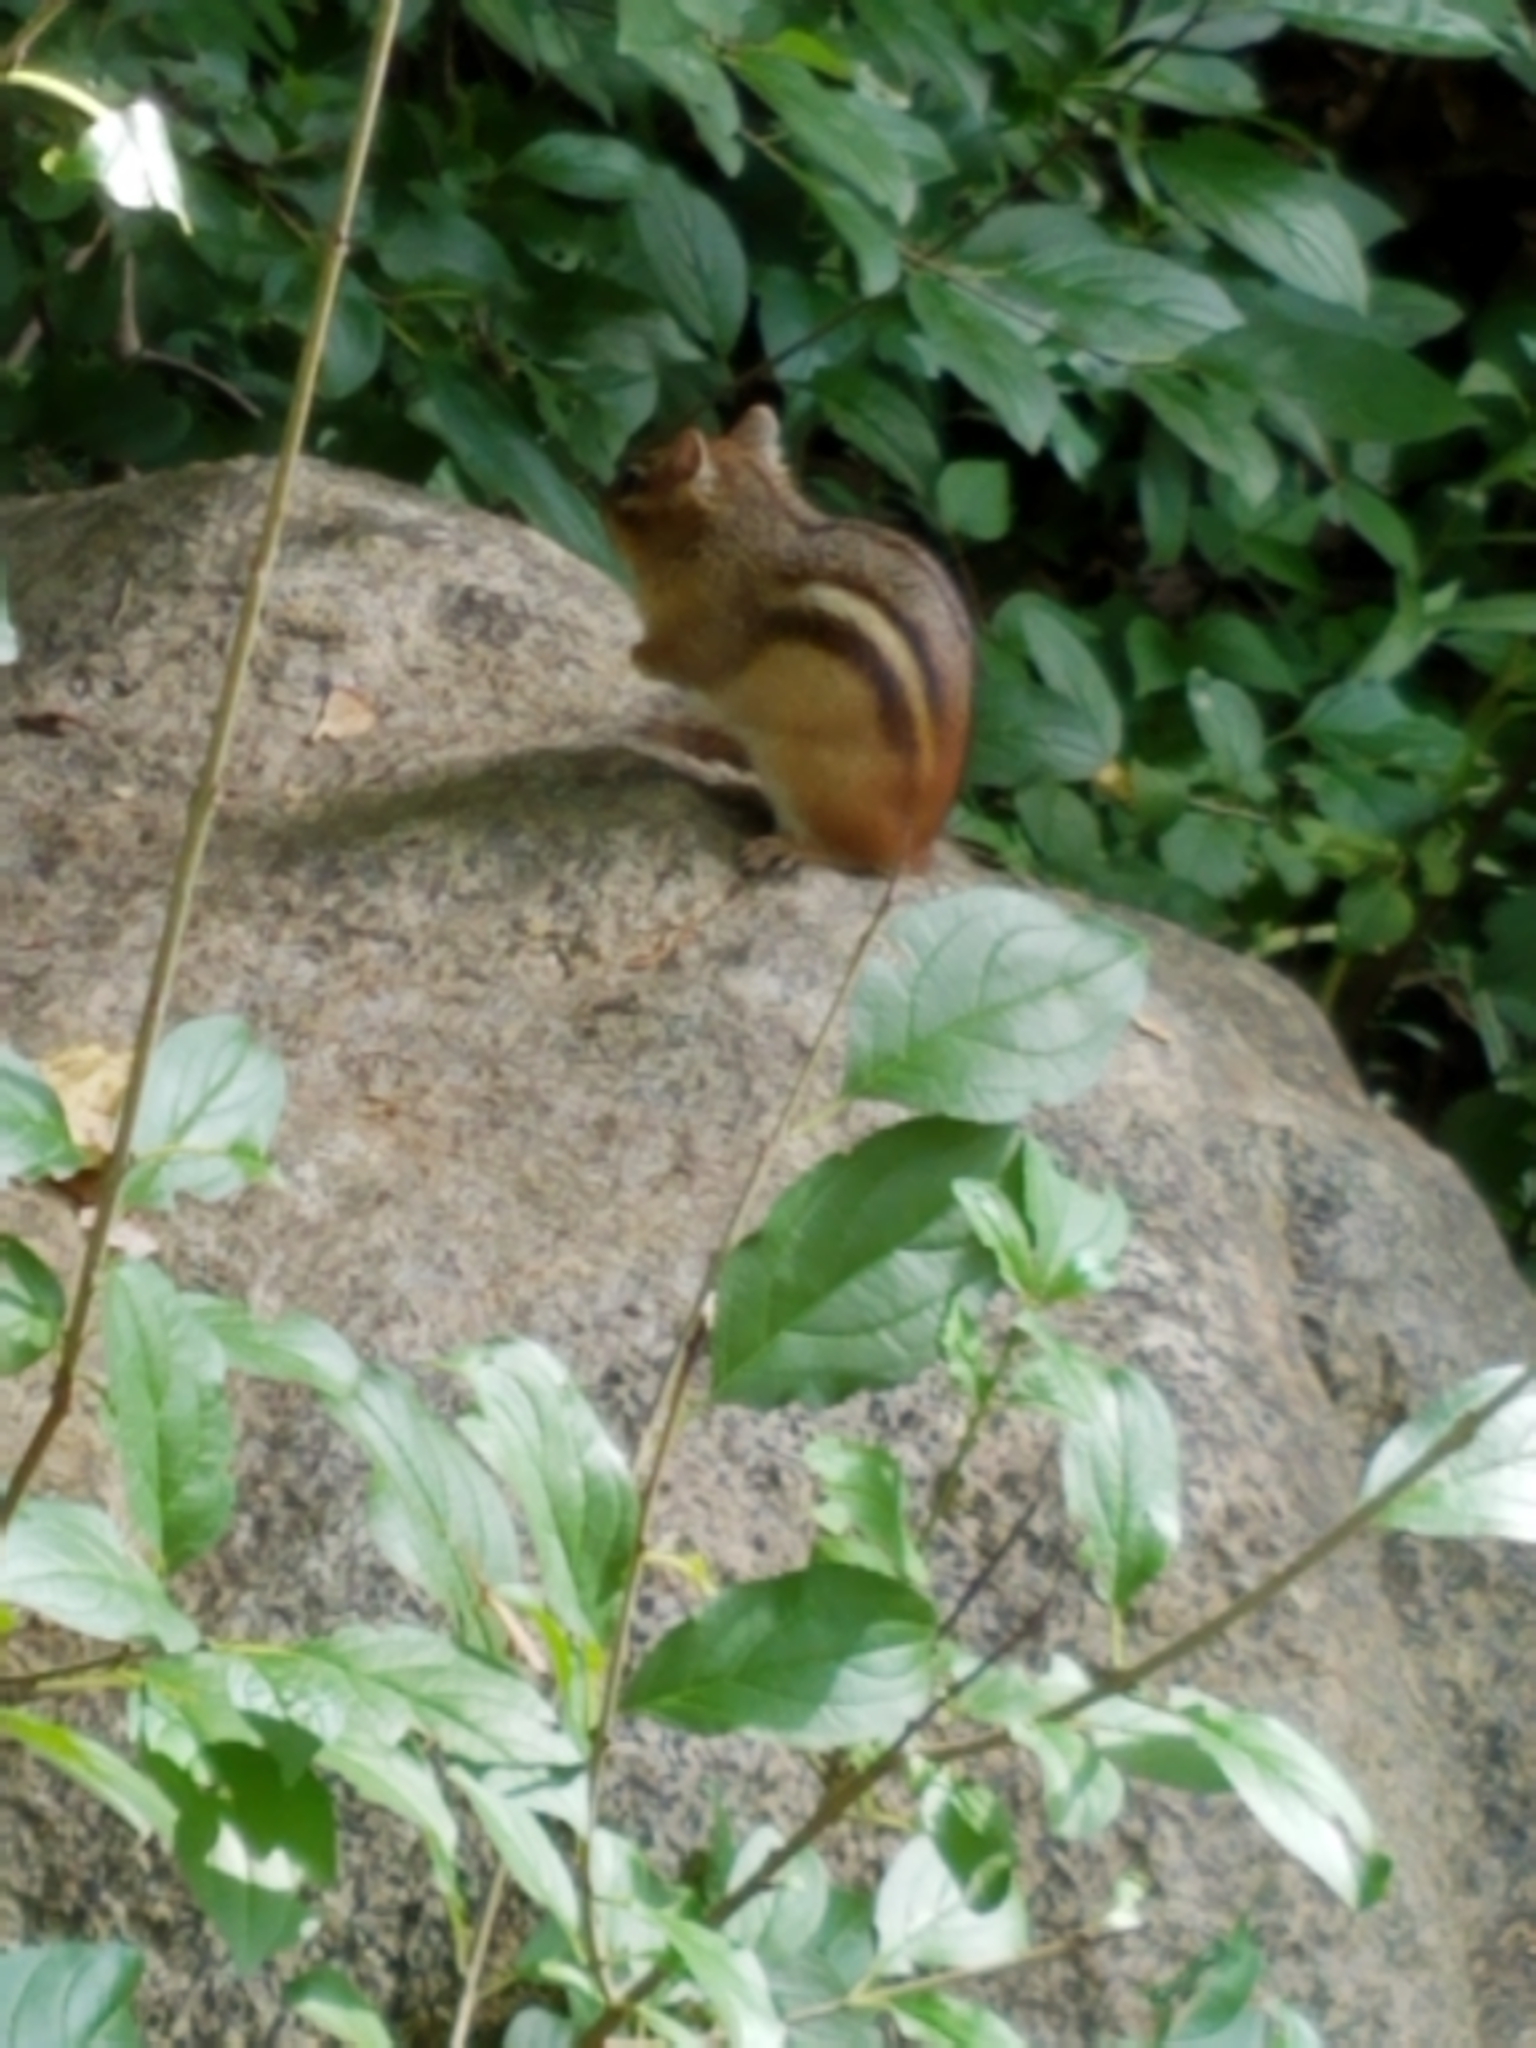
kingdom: Animalia
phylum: Chordata
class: Mammalia
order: Rodentia
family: Sciuridae
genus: Tamias
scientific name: Tamias striatus
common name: Eastern chipmunk
